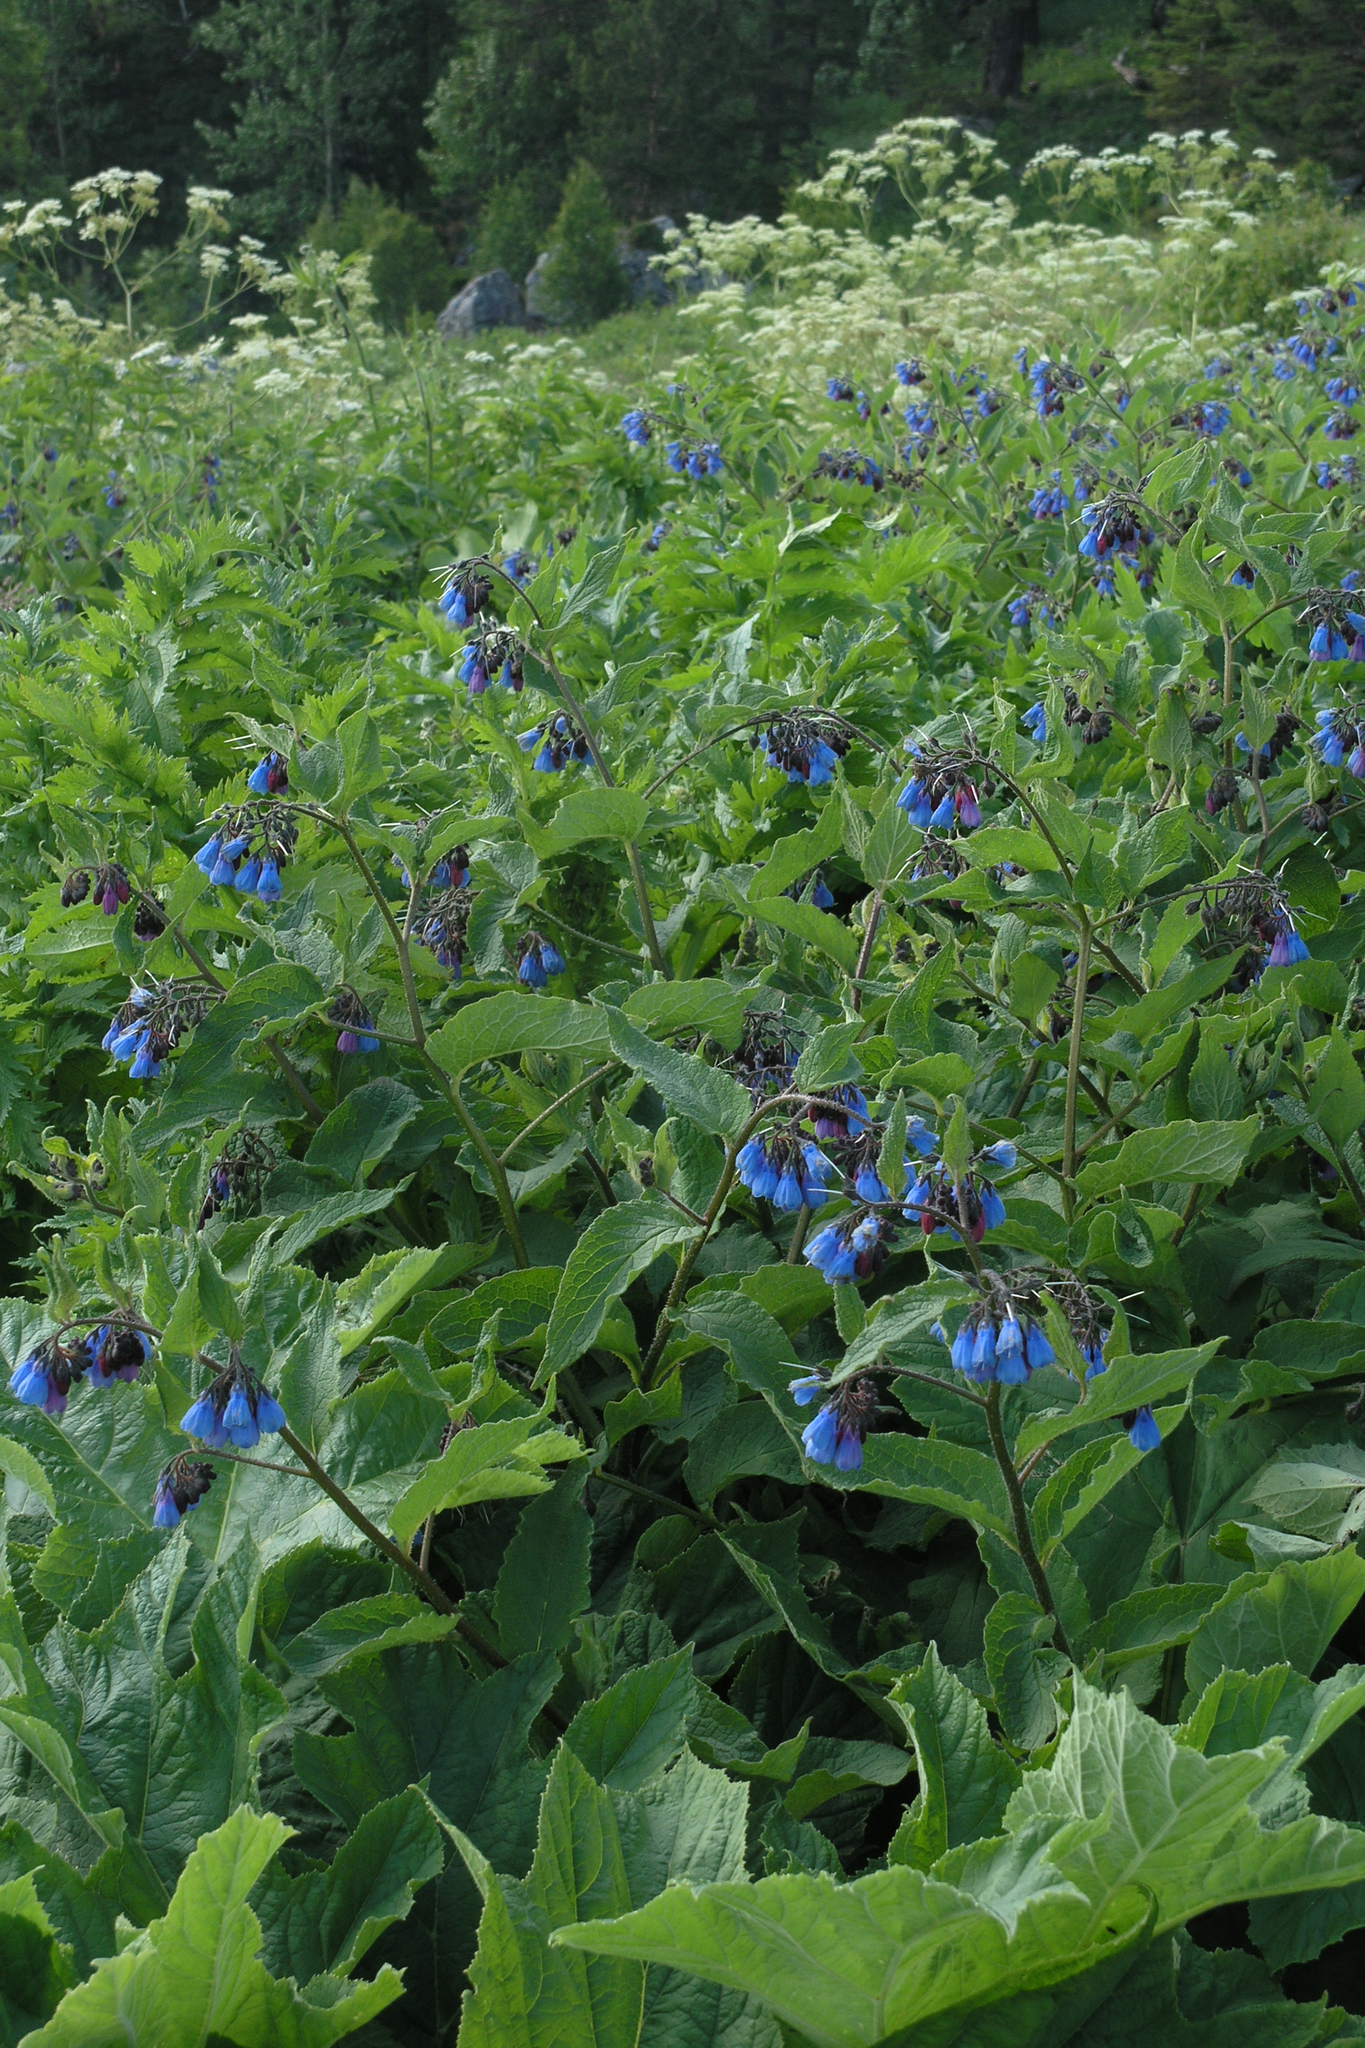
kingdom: Plantae
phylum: Tracheophyta
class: Magnoliopsida
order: Boraginales
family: Boraginaceae
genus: Symphytum
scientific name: Symphytum asperum
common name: Prickly comfrey
